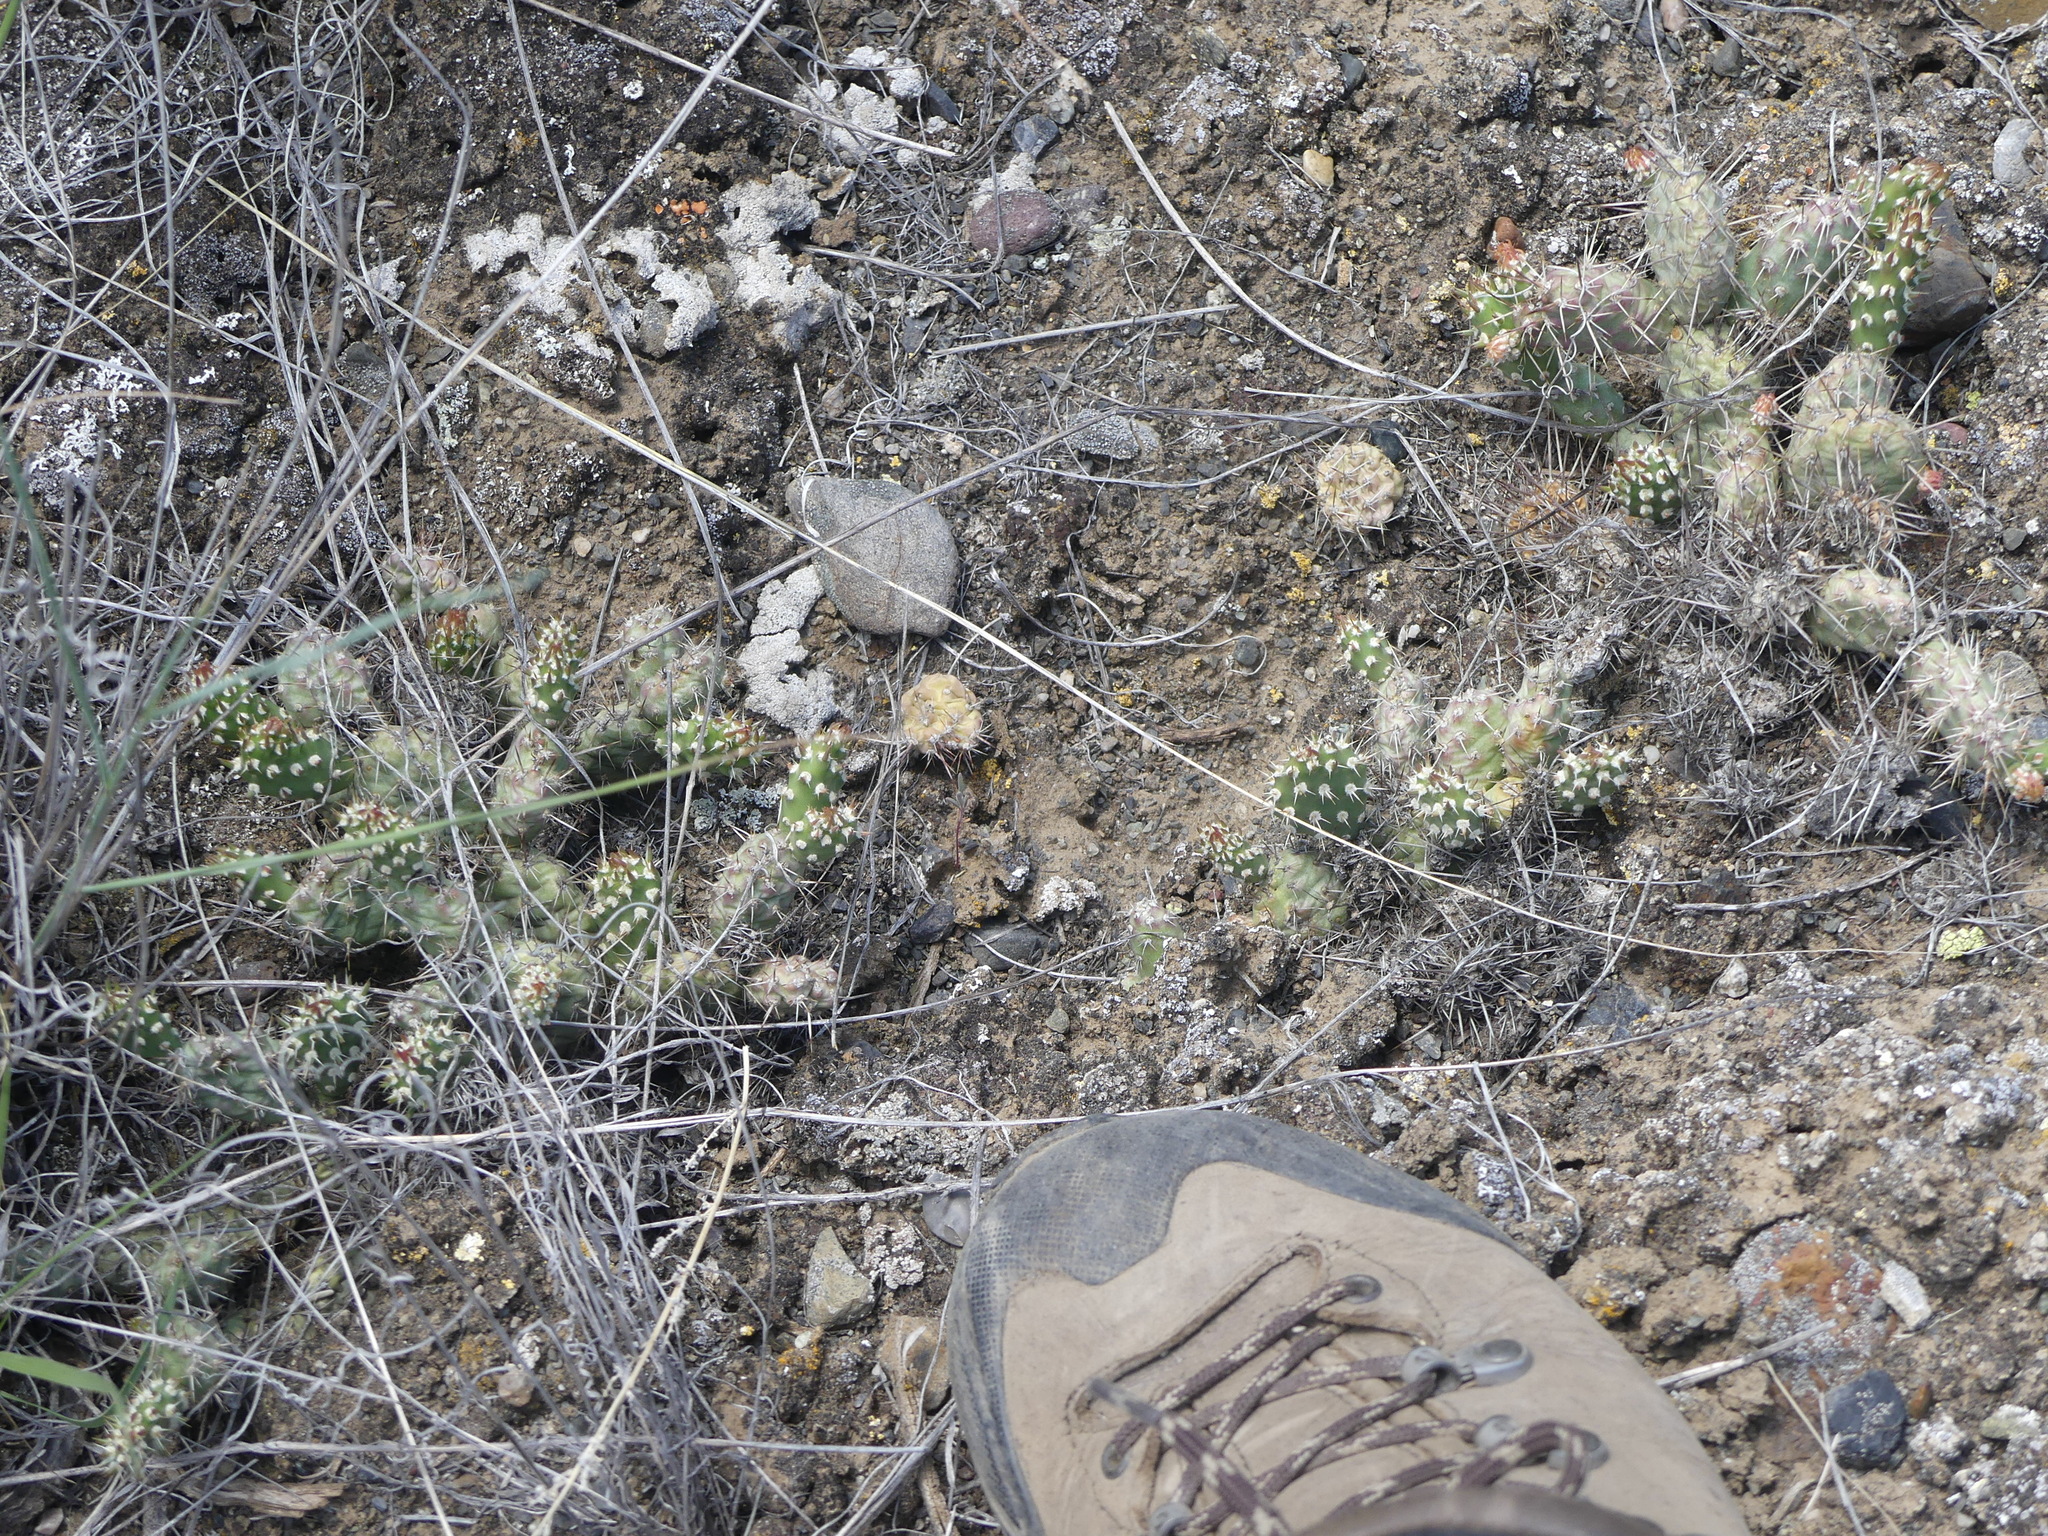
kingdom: Plantae
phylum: Tracheophyta
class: Magnoliopsida
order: Caryophyllales
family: Cactaceae
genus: Opuntia
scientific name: Opuntia fragilis
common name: Brittle cactus
